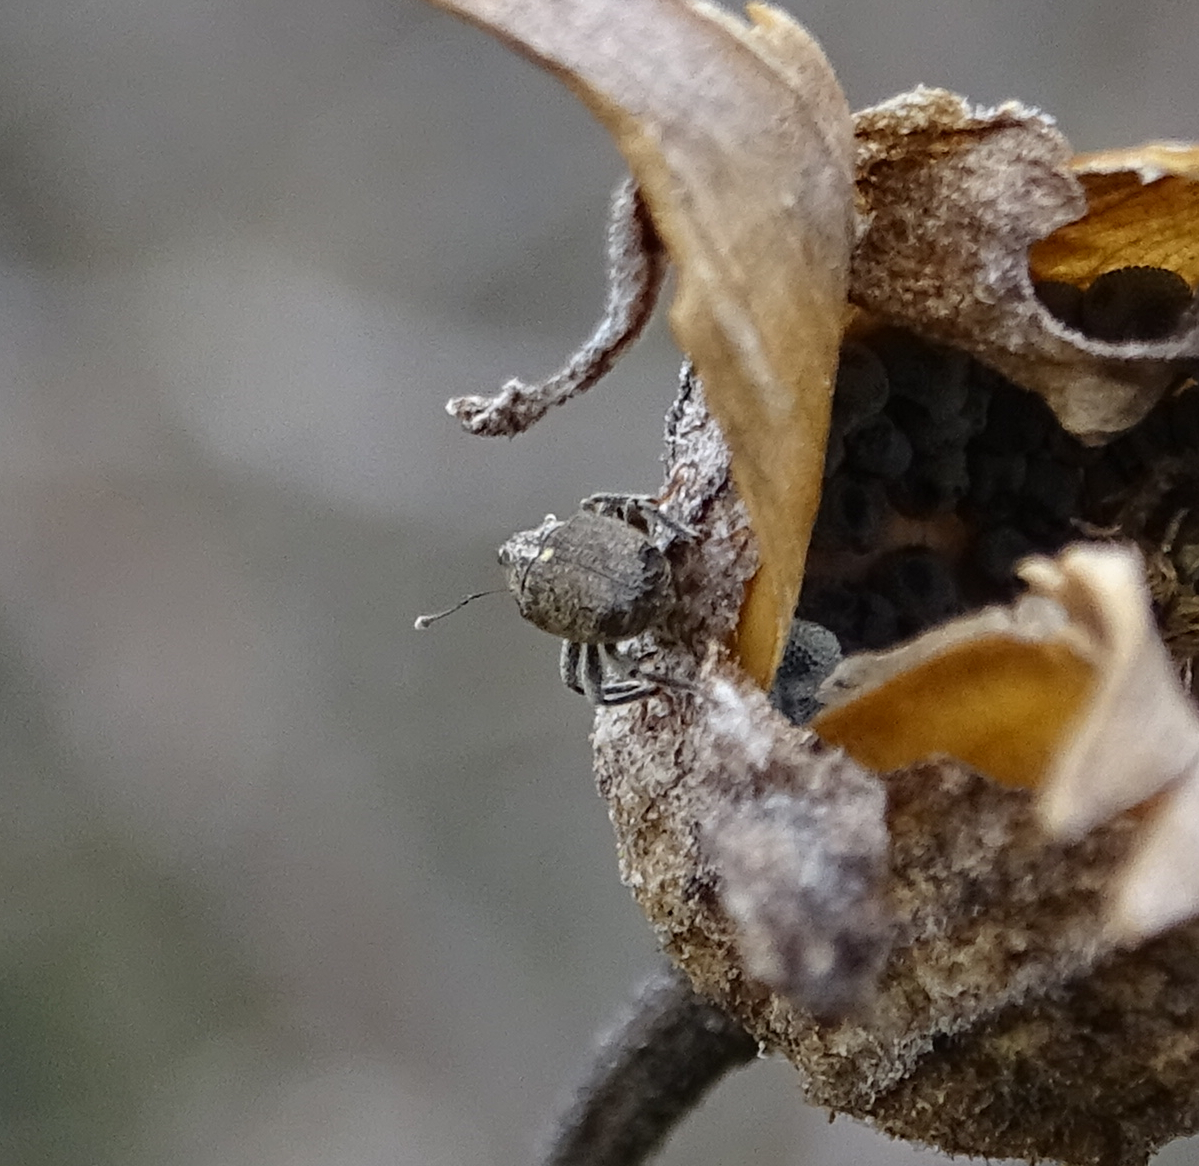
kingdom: Animalia
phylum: Arthropoda
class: Insecta
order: Coleoptera
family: Curculionidae
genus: Ceutorhynchus
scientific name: Ceutorhynchus pallidactylus
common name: Cabbage stem weavil
